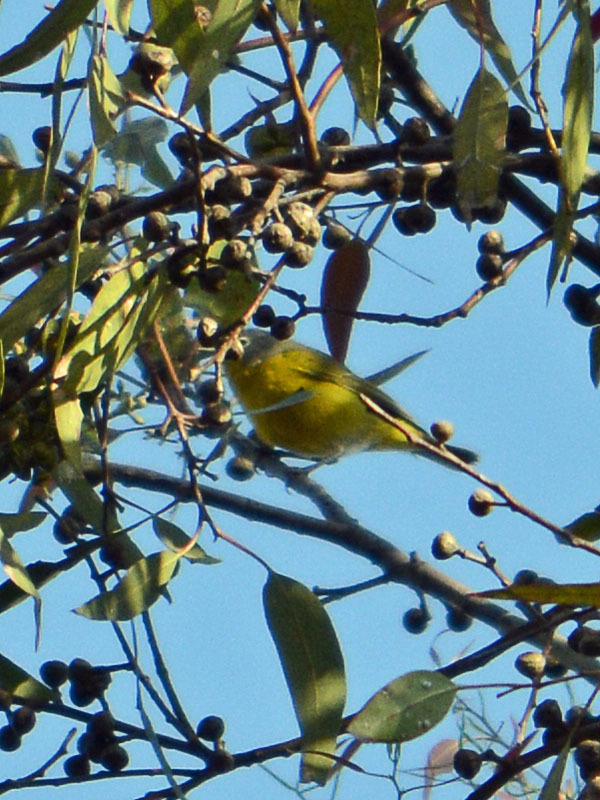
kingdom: Animalia
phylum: Chordata
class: Aves
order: Passeriformes
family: Parulidae
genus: Leiothlypis
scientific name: Leiothlypis ruficapilla
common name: Nashville warbler
